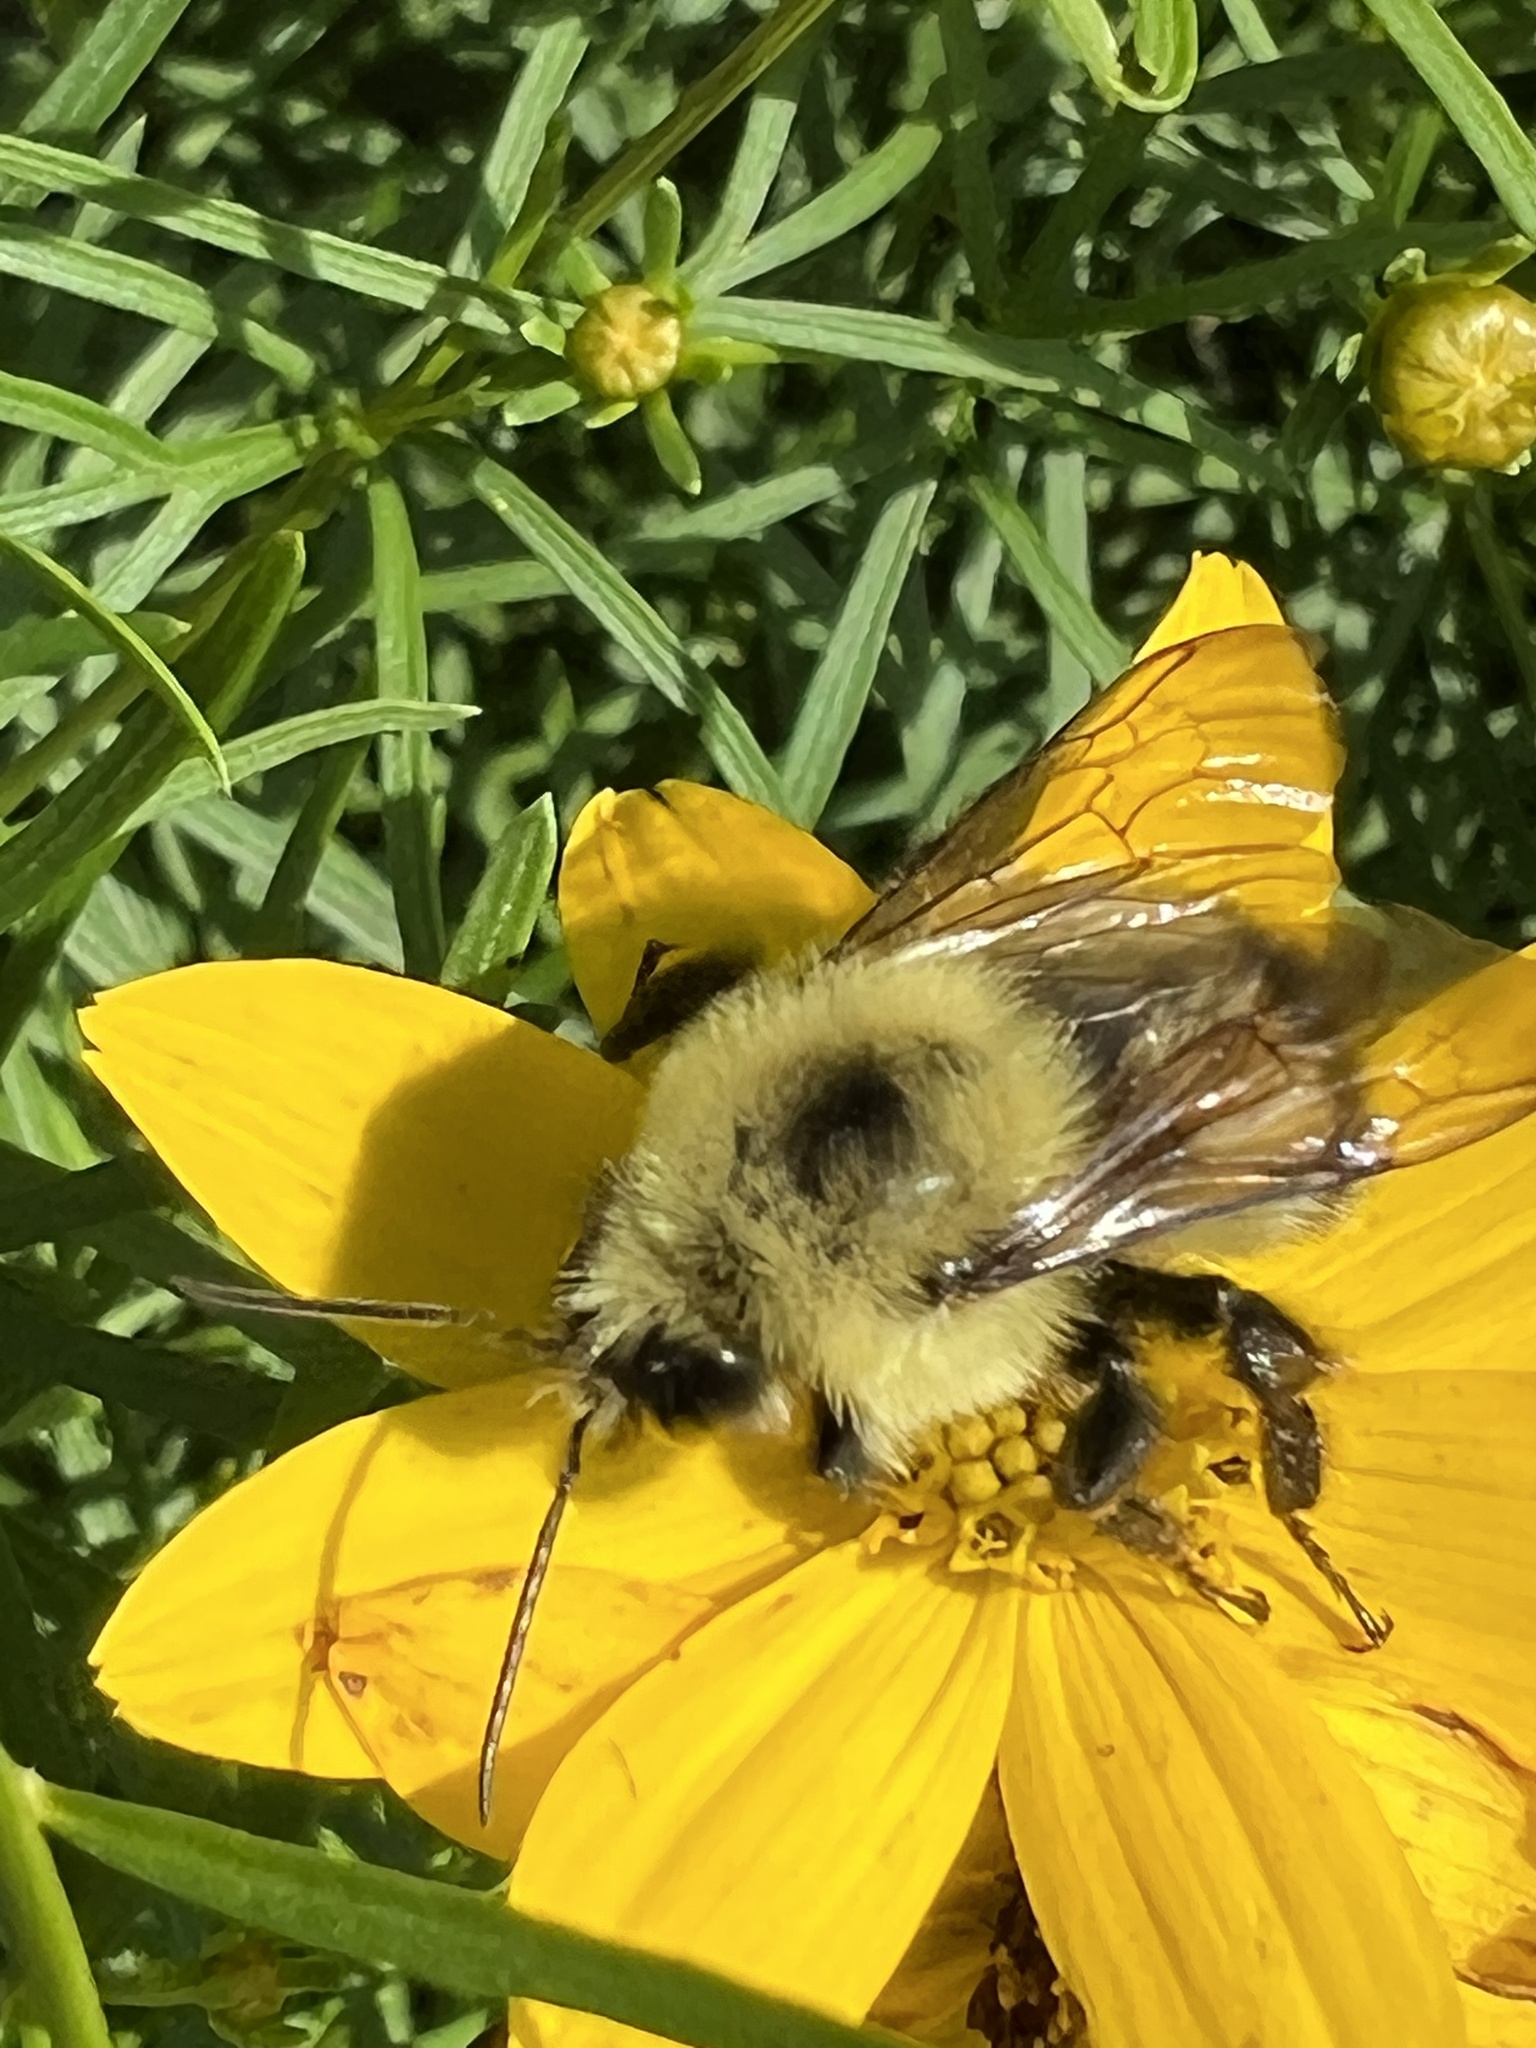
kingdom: Animalia
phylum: Arthropoda
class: Insecta
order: Hymenoptera
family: Apidae
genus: Bombus
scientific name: Bombus bimaculatus
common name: Two-spotted bumble bee
